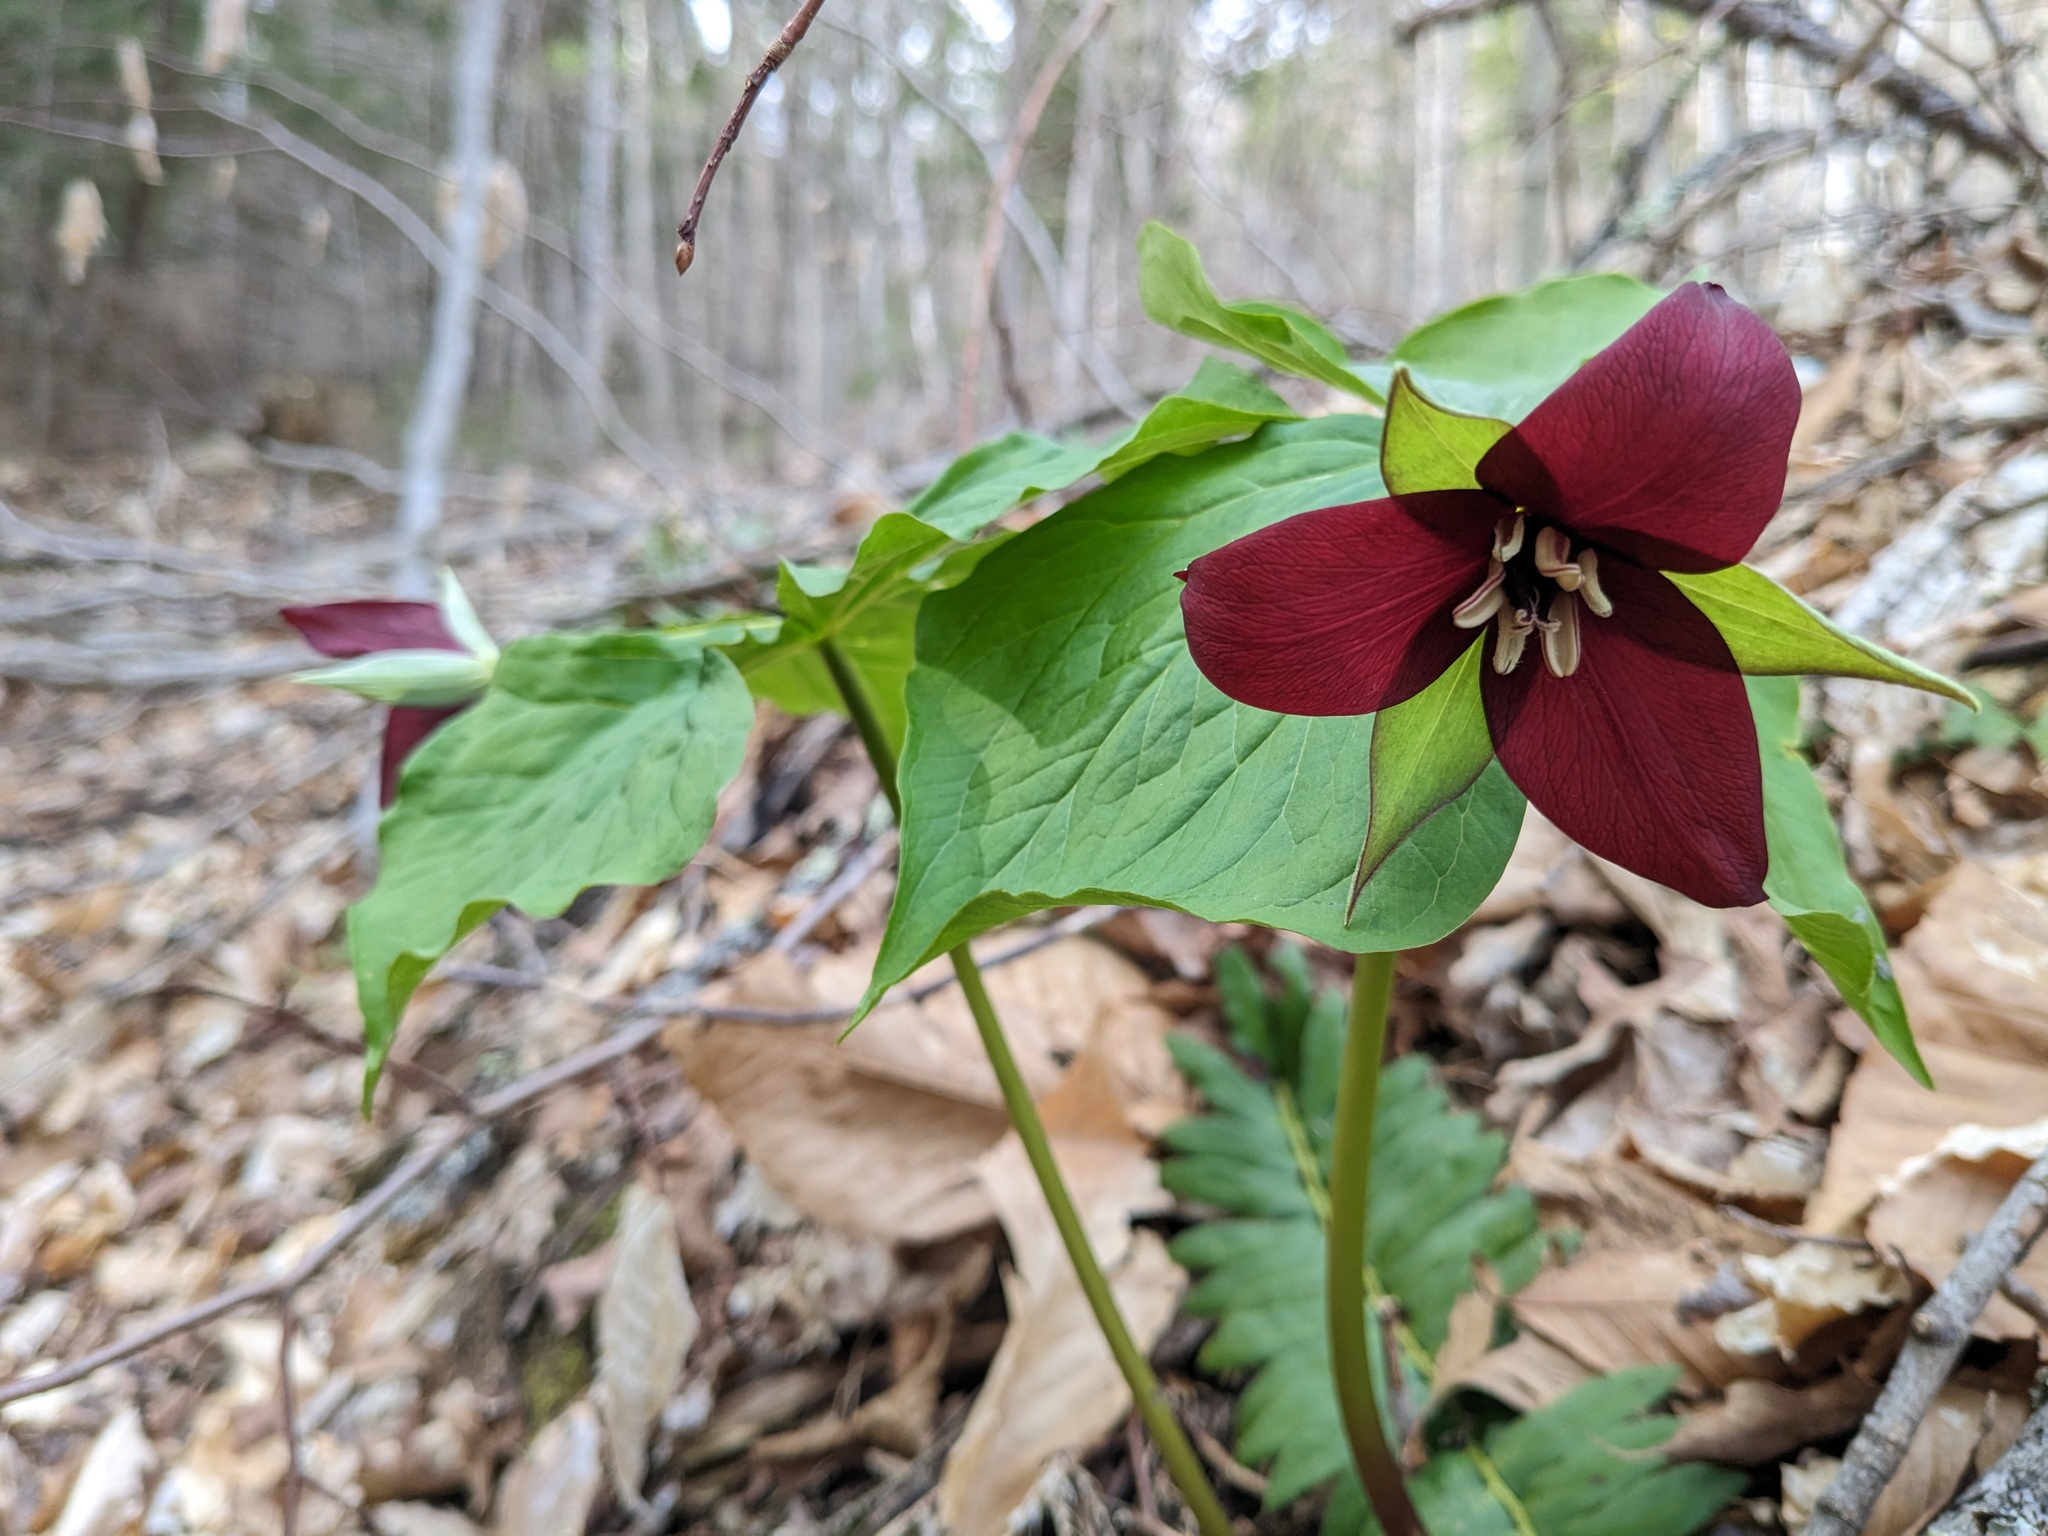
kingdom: Plantae
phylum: Tracheophyta
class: Liliopsida
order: Liliales
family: Melanthiaceae
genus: Trillium
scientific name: Trillium erectum
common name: Purple trillium
